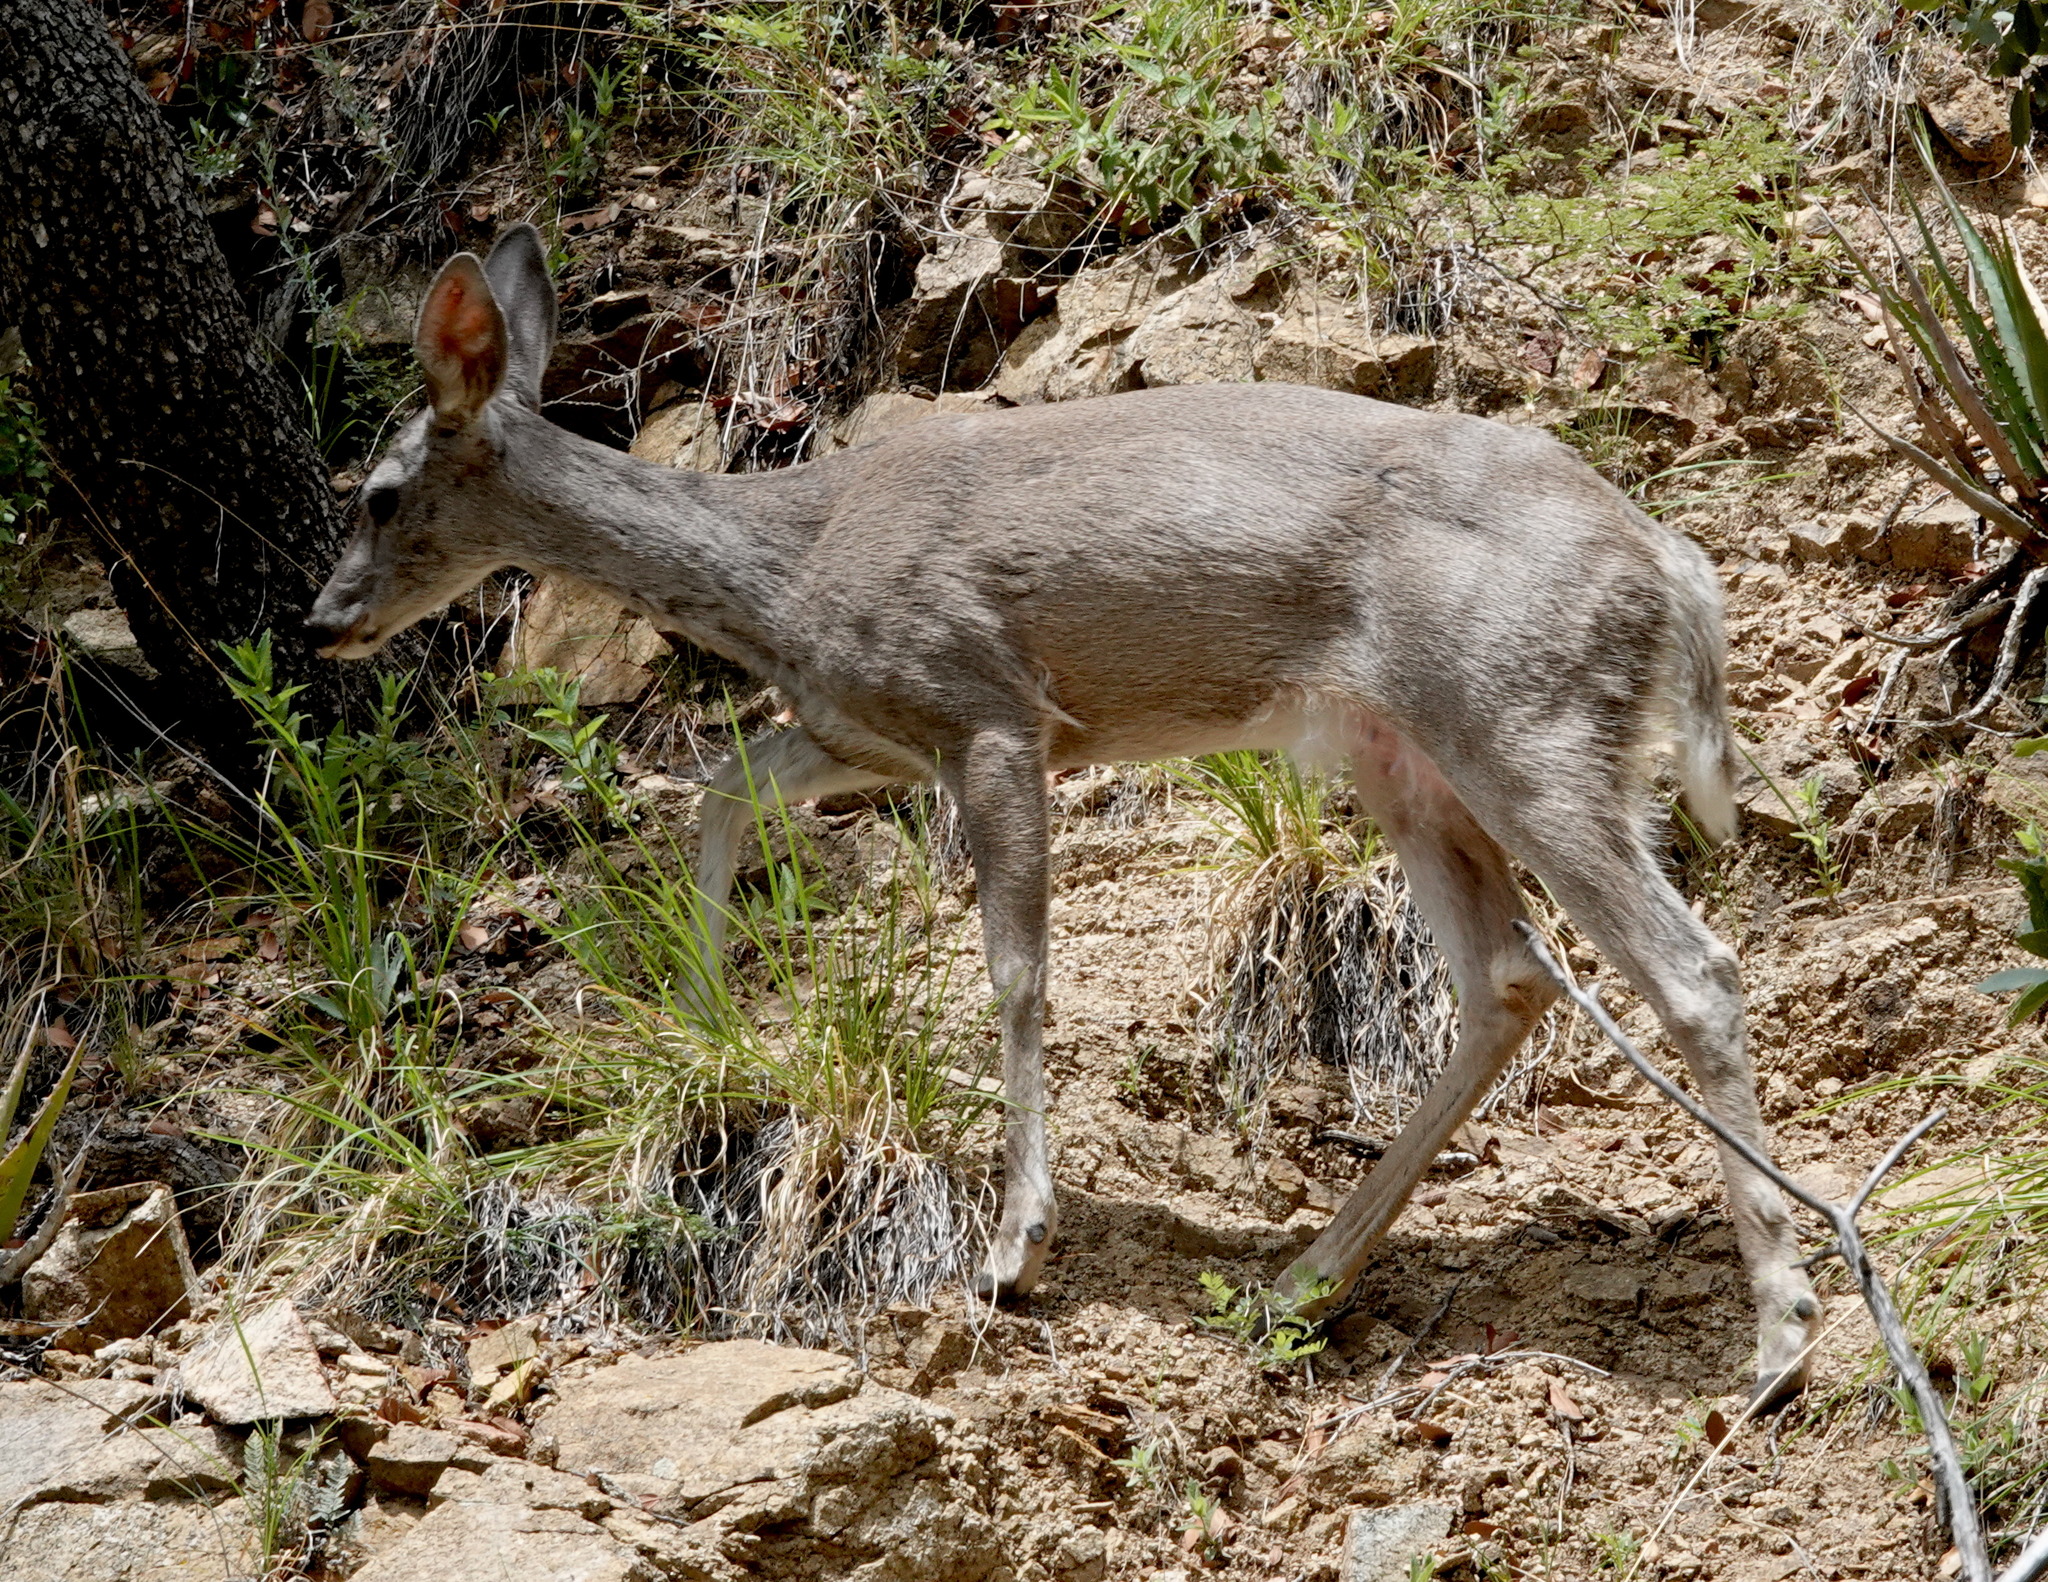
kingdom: Animalia
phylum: Chordata
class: Mammalia
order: Artiodactyla
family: Cervidae
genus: Odocoileus
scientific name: Odocoileus virginianus
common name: White-tailed deer
